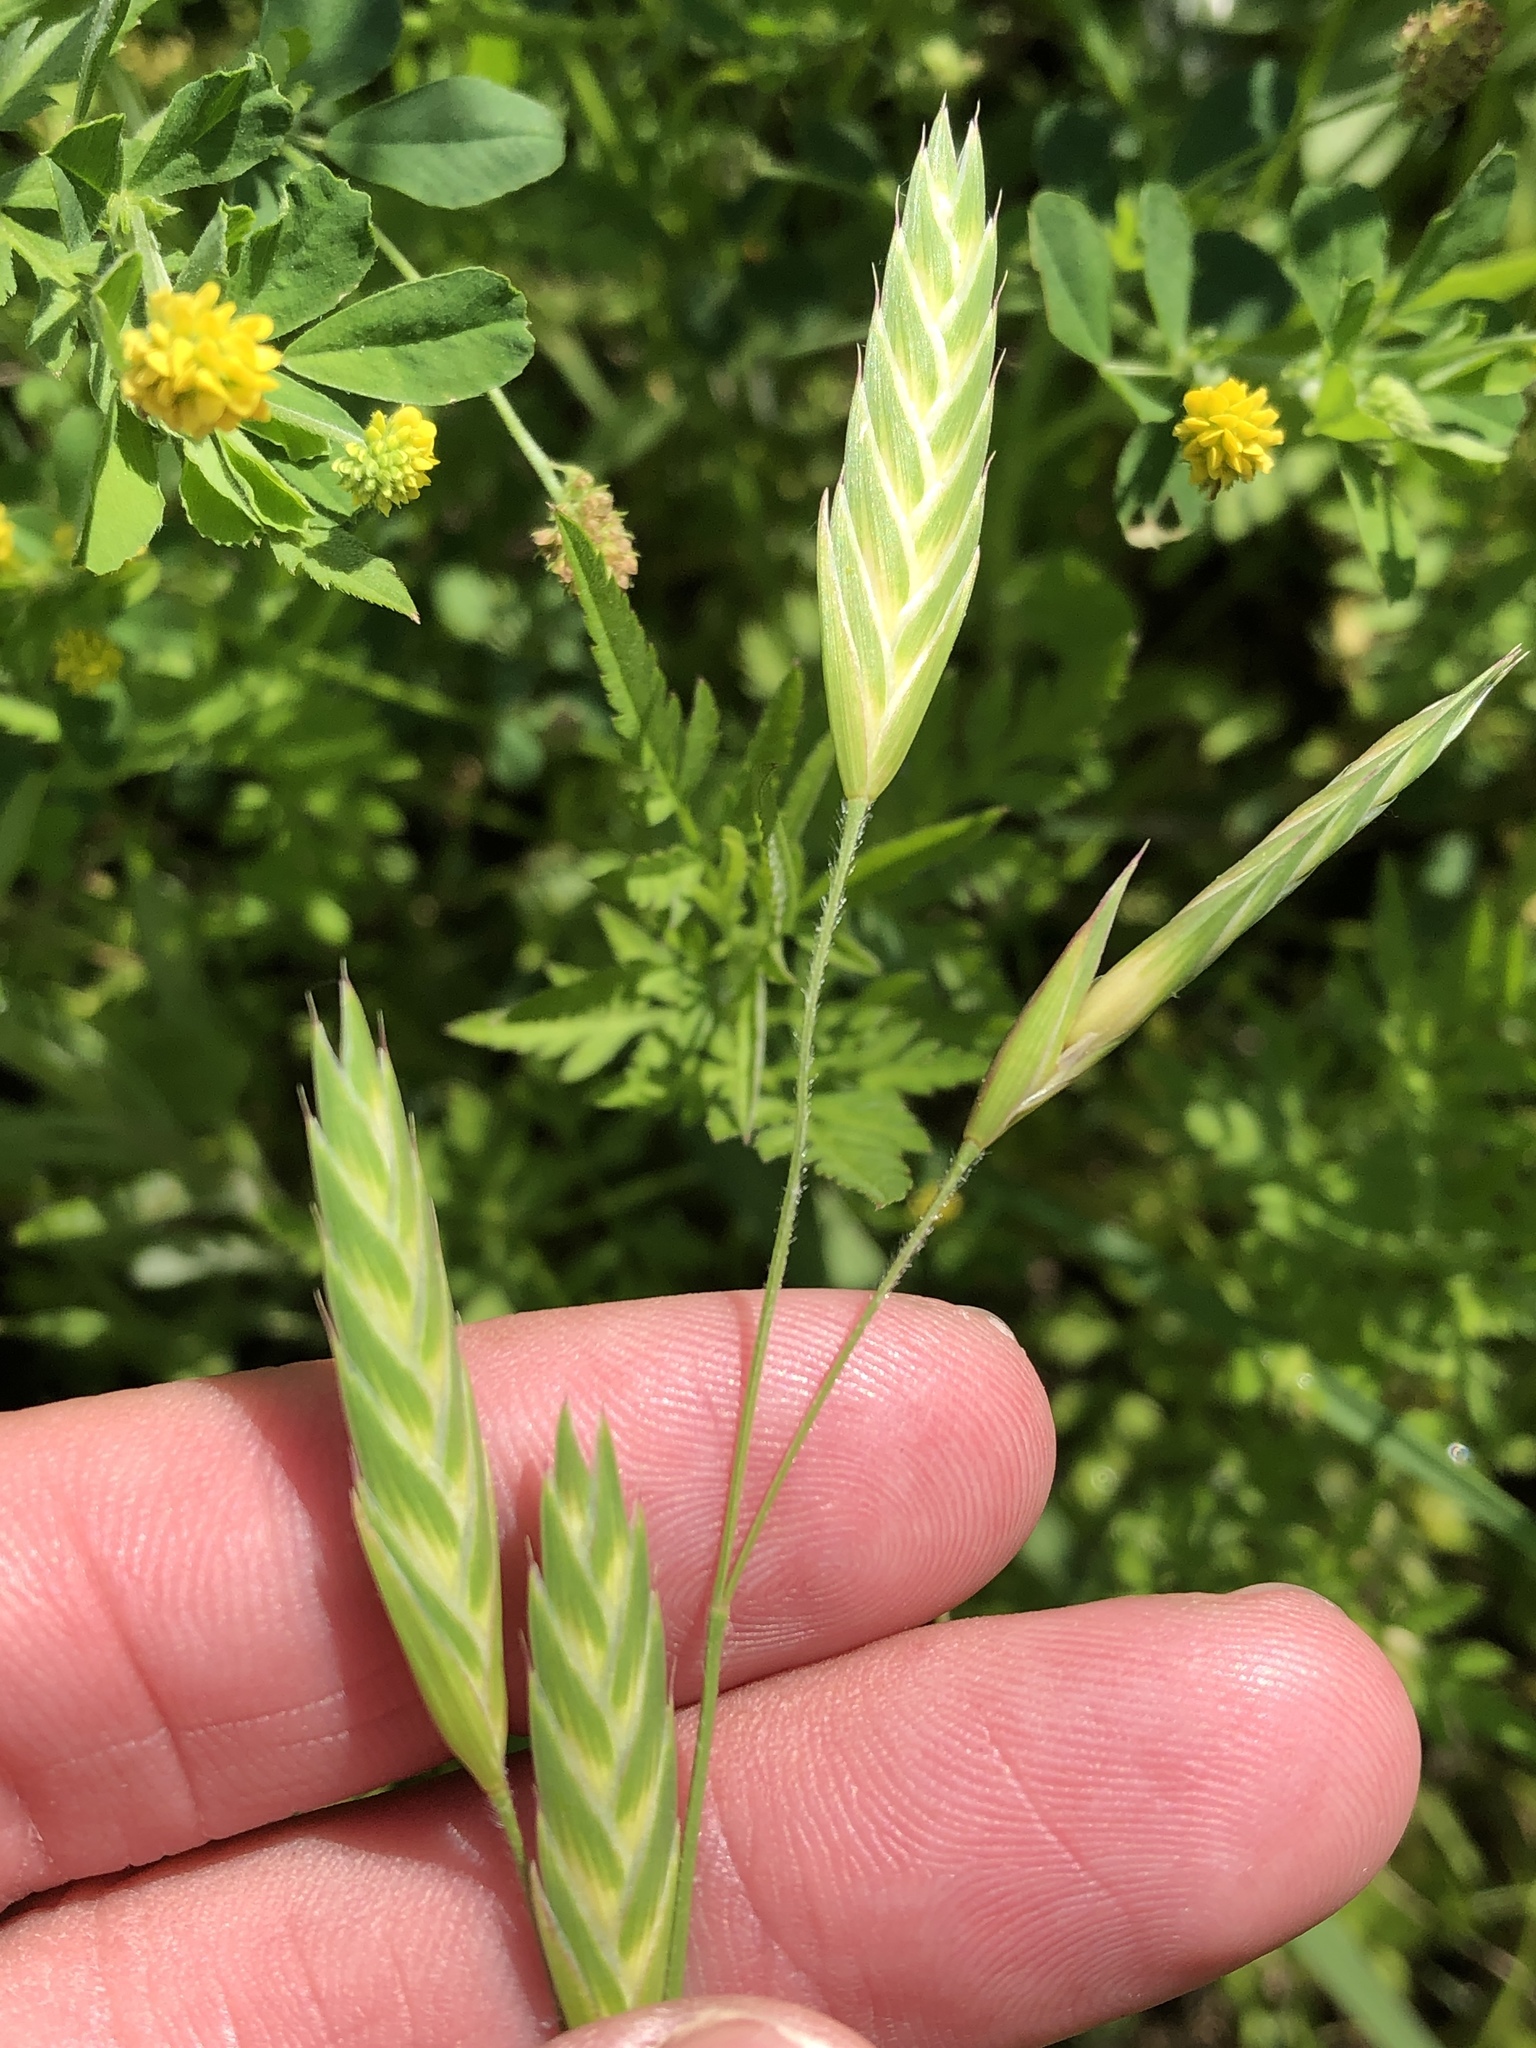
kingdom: Plantae
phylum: Tracheophyta
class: Liliopsida
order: Poales
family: Poaceae
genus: Bromus
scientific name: Bromus catharticus
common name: Rescuegrass
